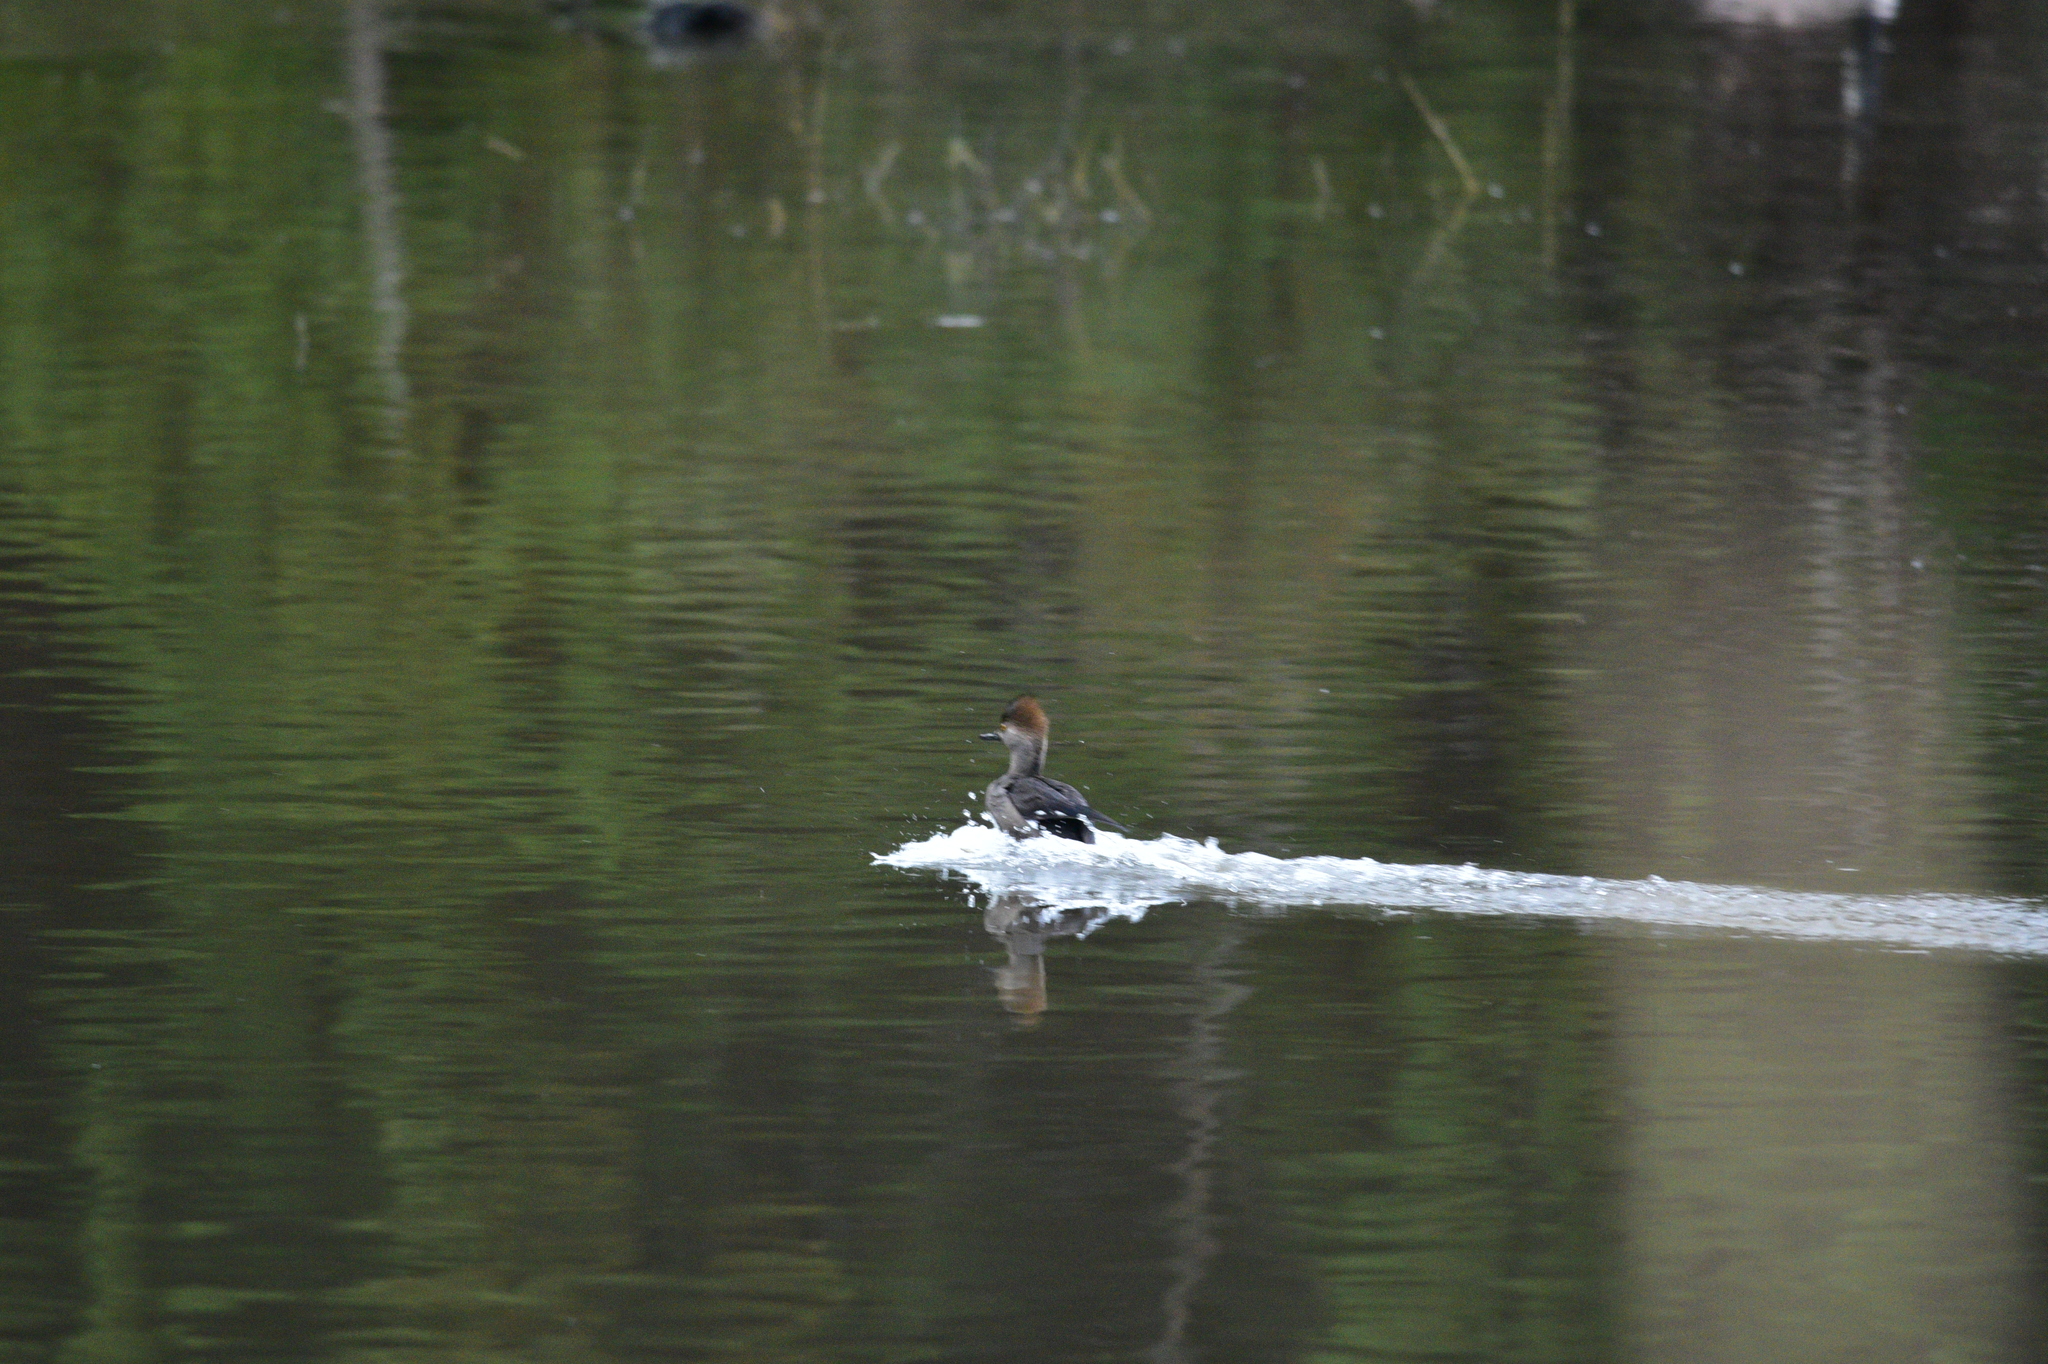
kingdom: Animalia
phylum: Chordata
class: Aves
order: Anseriformes
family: Anatidae
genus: Lophodytes
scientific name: Lophodytes cucullatus
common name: Hooded merganser
